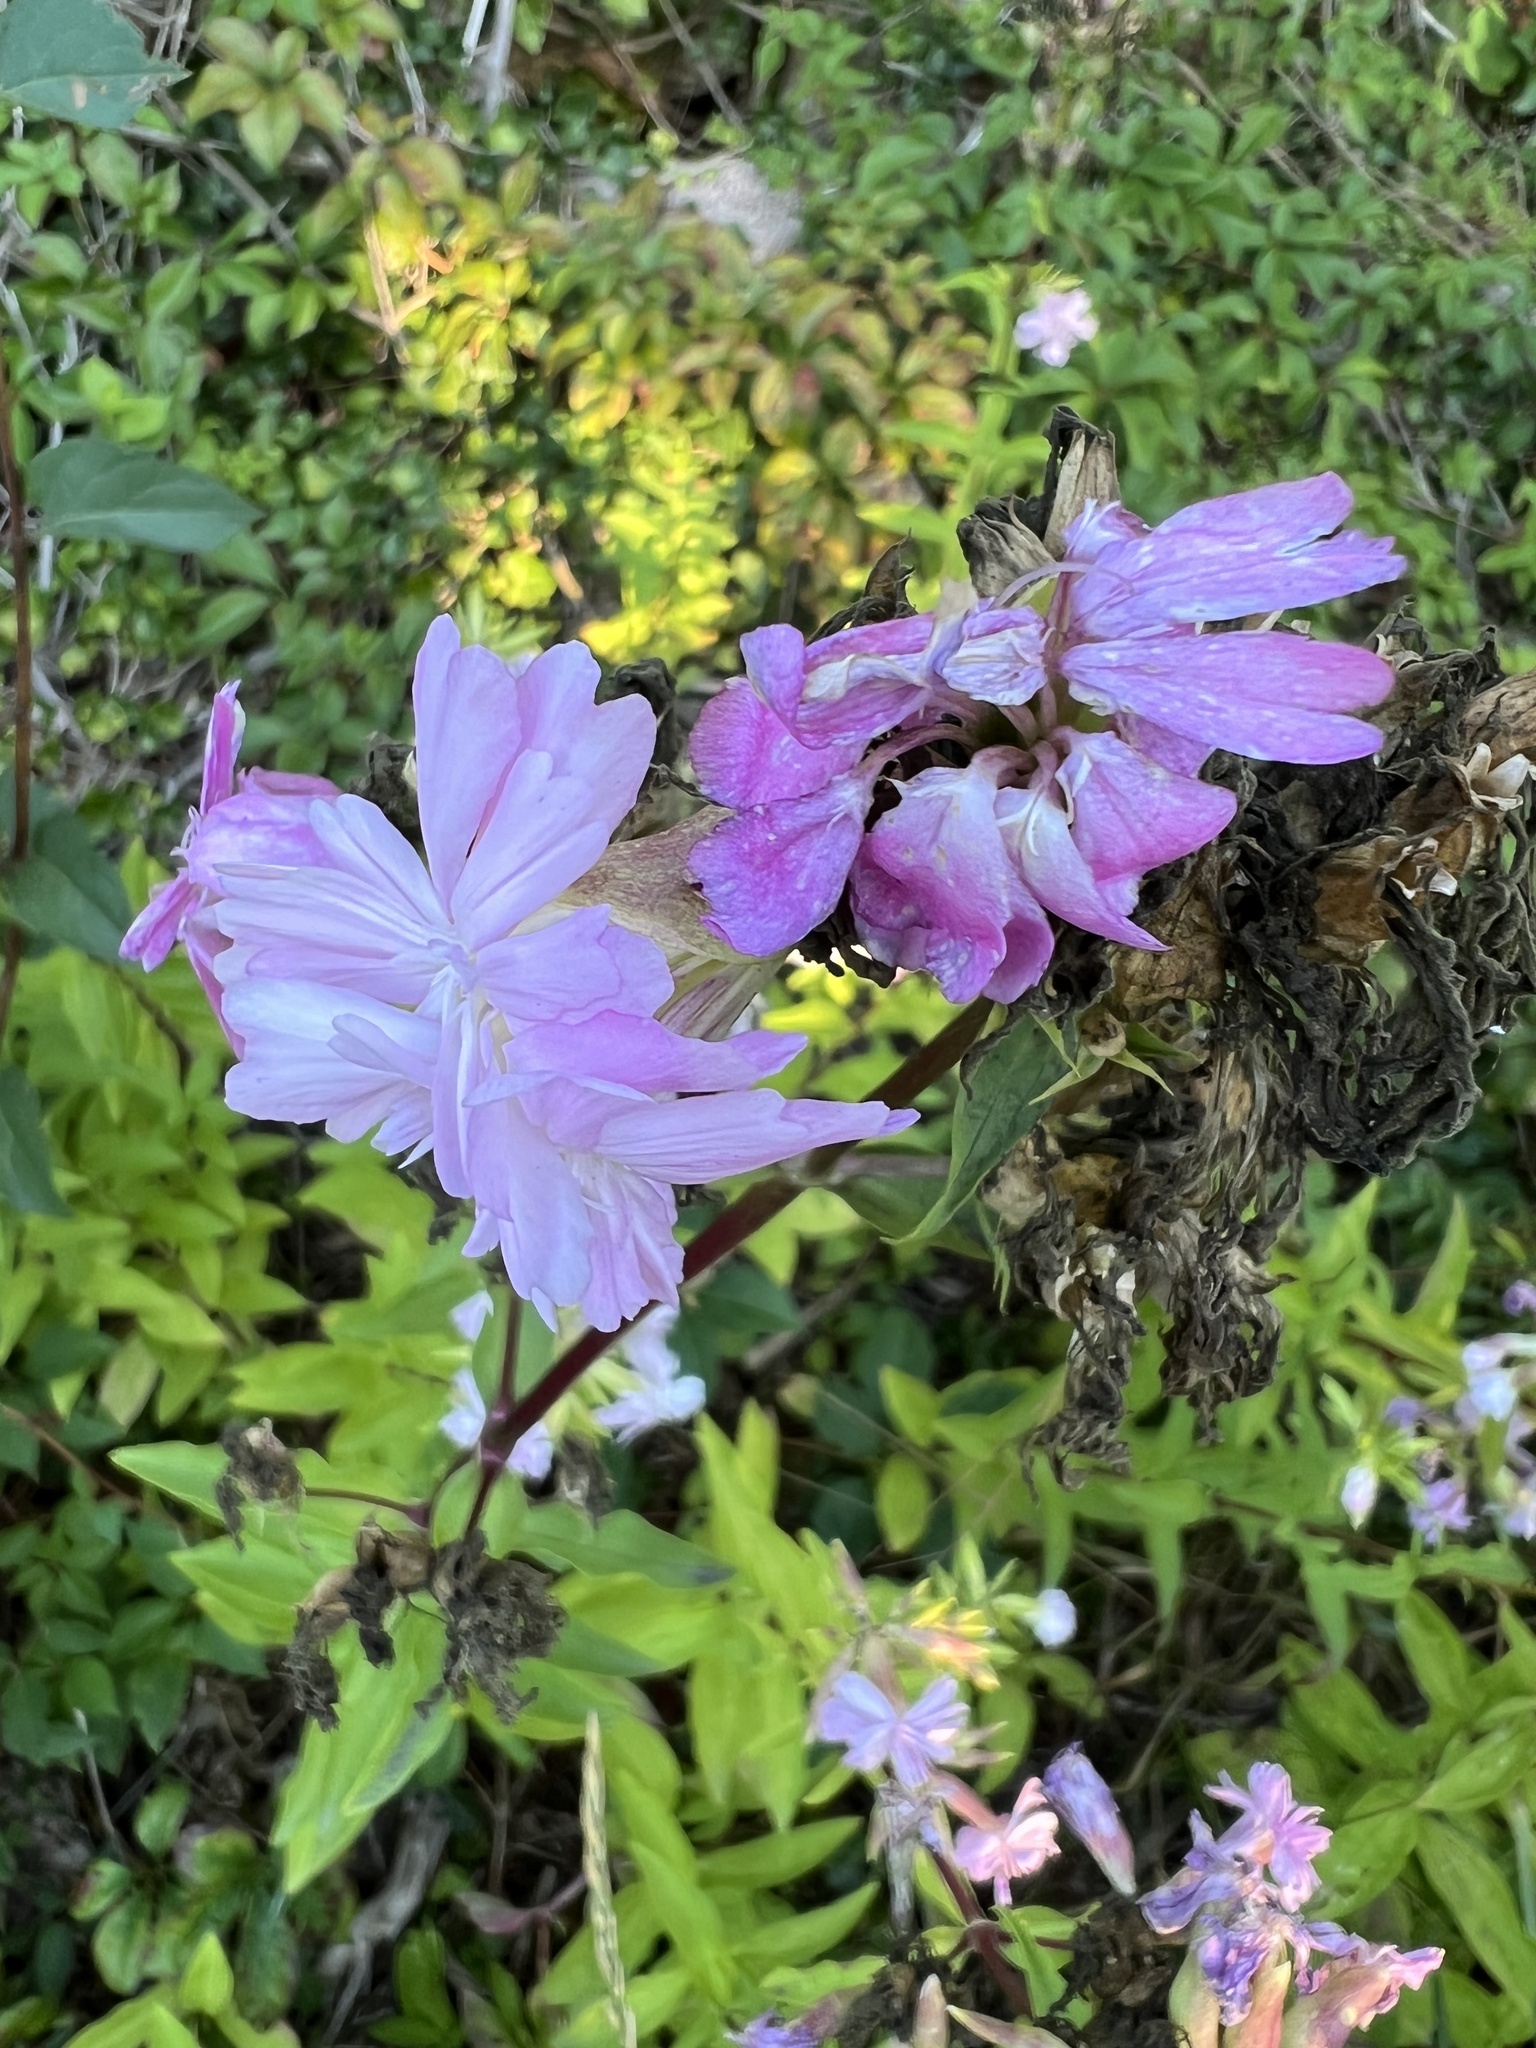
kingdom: Plantae
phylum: Tracheophyta
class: Magnoliopsida
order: Caryophyllales
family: Caryophyllaceae
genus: Saponaria
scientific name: Saponaria officinalis
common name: Soapwort
